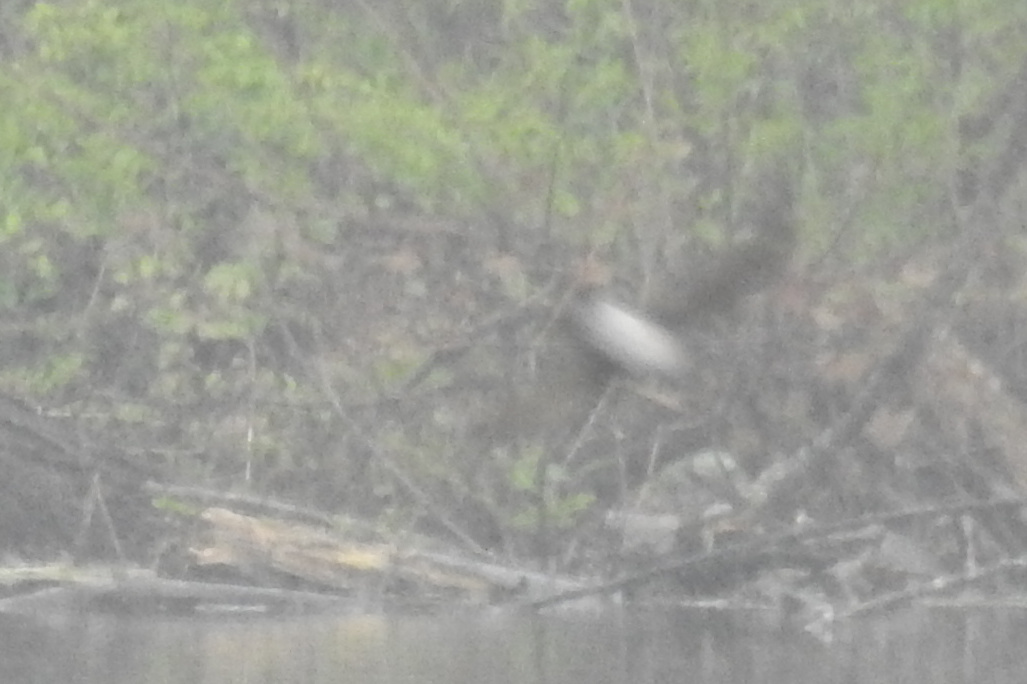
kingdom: Animalia
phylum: Chordata
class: Aves
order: Passeriformes
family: Hirundinidae
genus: Stelgidopteryx
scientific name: Stelgidopteryx serripennis
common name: Northern rough-winged swallow
